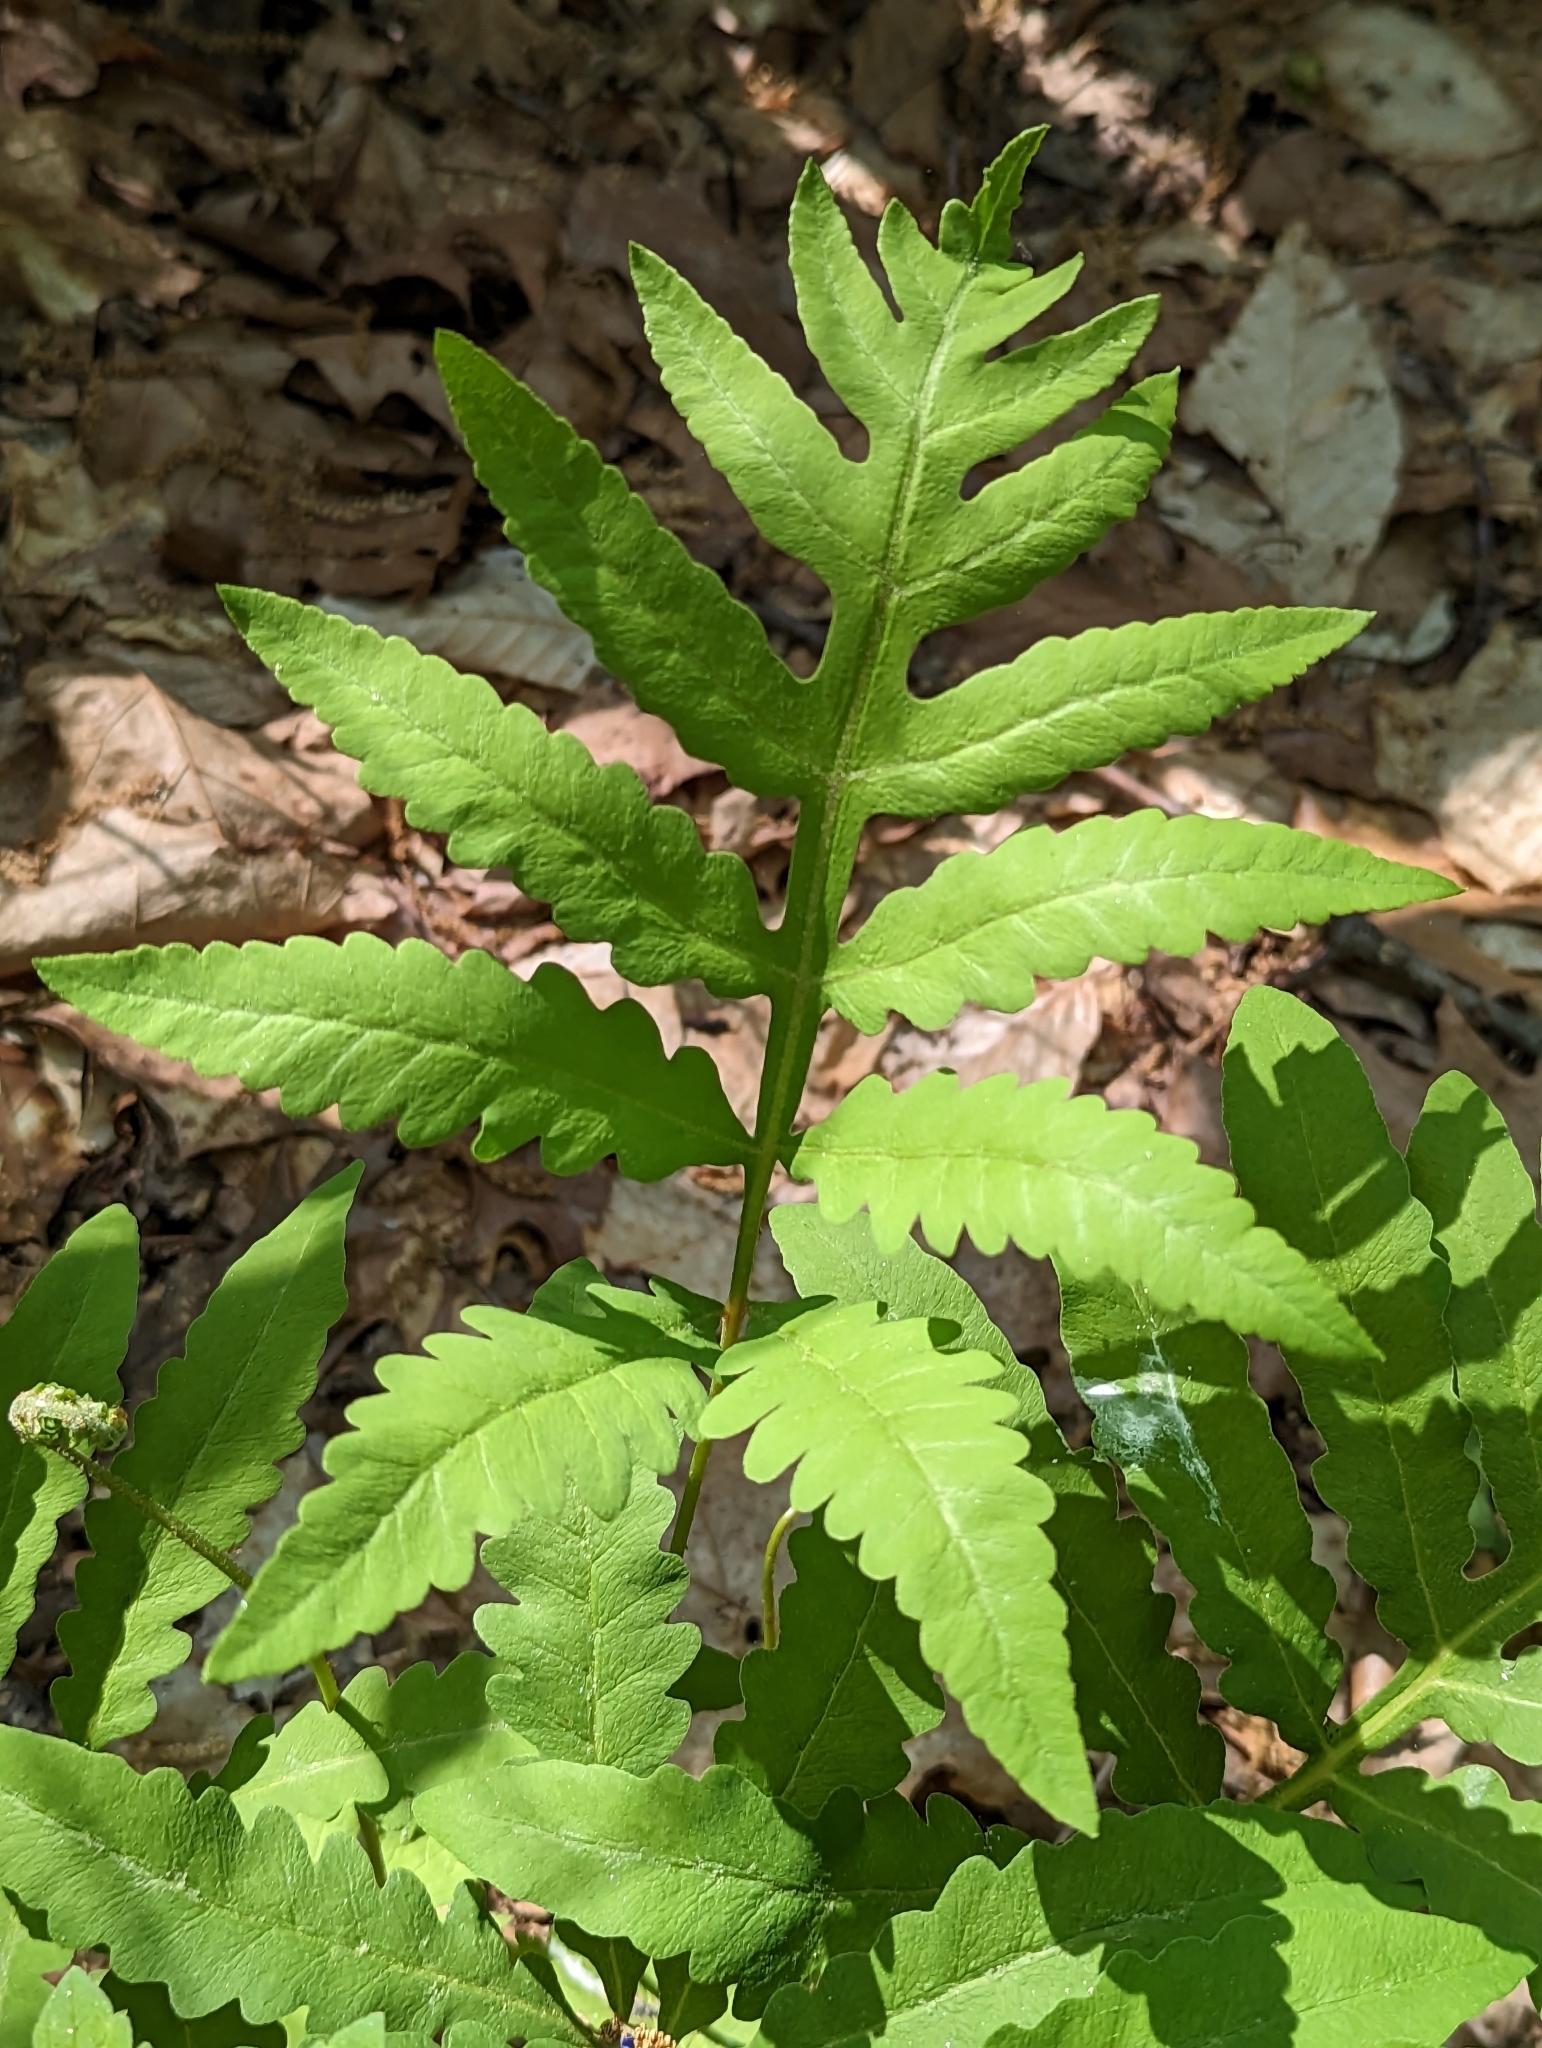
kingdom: Plantae
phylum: Tracheophyta
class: Polypodiopsida
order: Polypodiales
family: Onocleaceae
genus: Onoclea
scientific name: Onoclea sensibilis
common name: Sensitive fern
